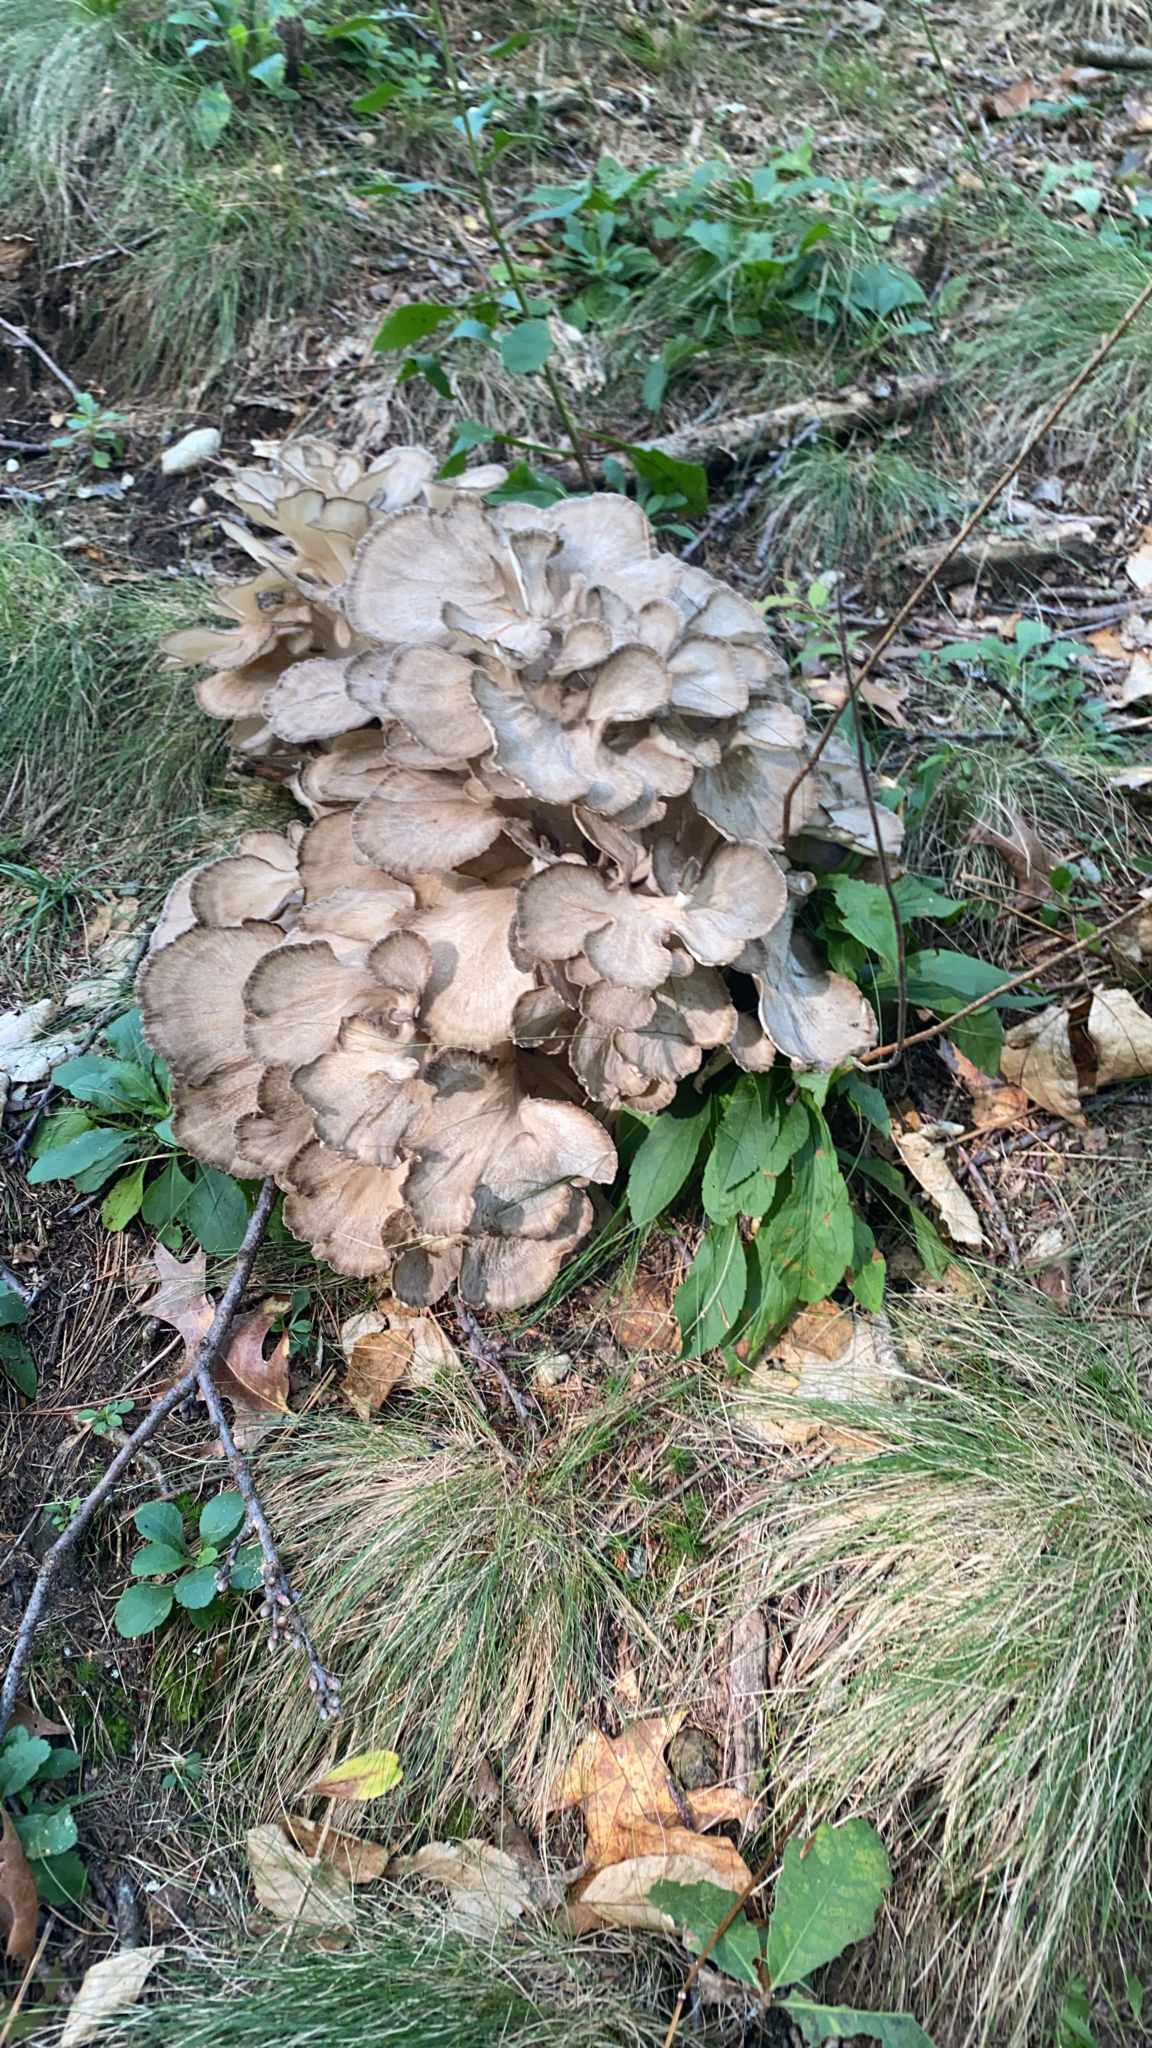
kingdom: Fungi
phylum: Basidiomycota
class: Agaricomycetes
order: Polyporales
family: Grifolaceae
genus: Grifola
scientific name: Grifola frondosa
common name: Hen of the woods
